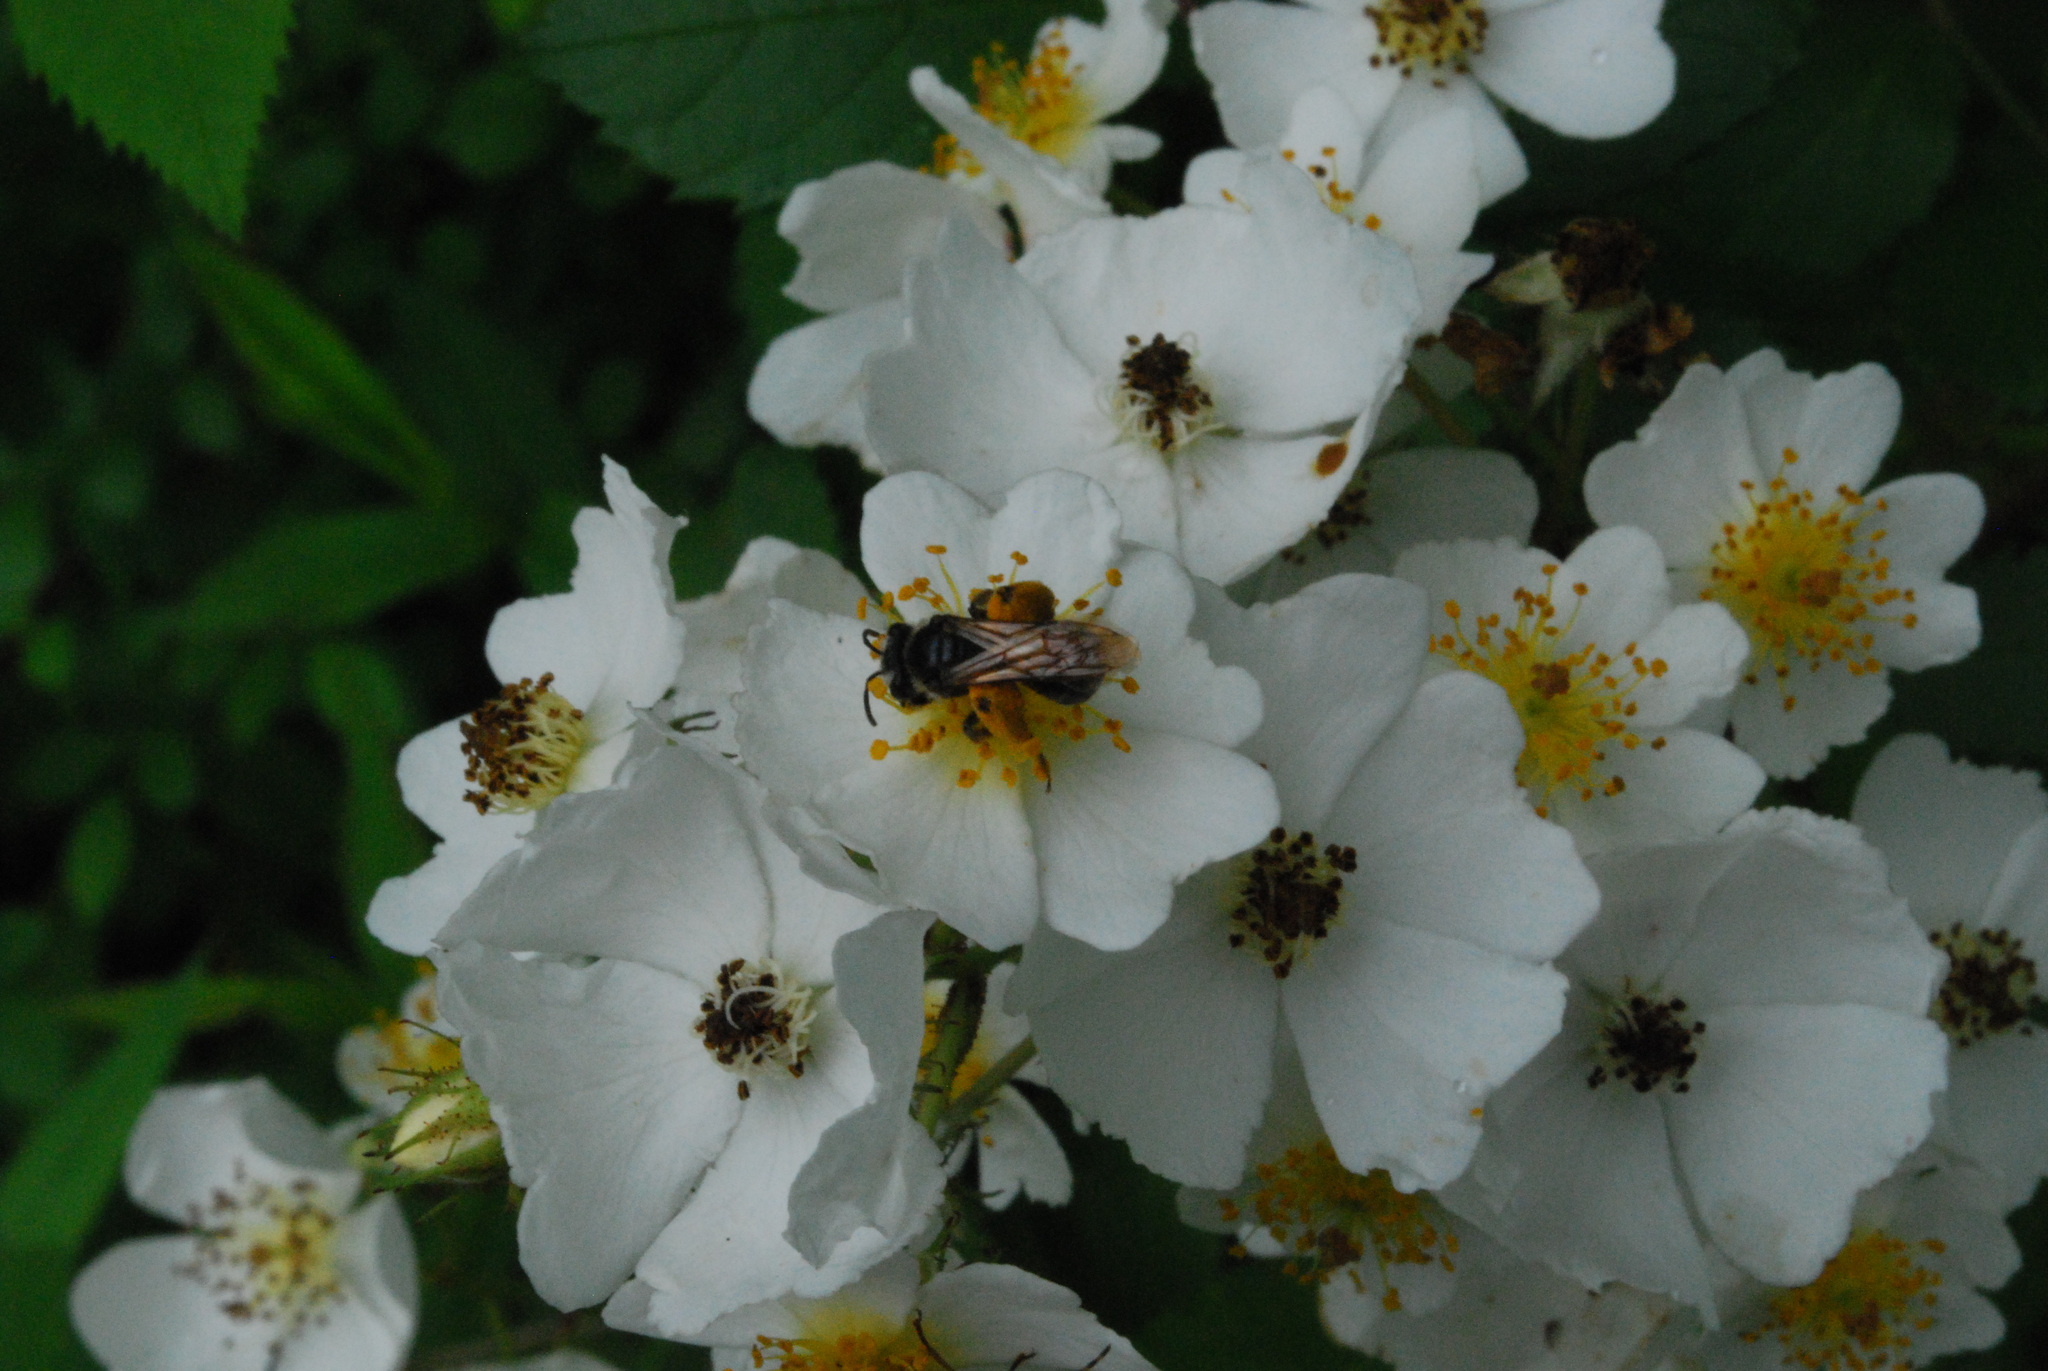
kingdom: Plantae
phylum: Tracheophyta
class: Magnoliopsida
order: Rosales
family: Rosaceae
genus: Rosa
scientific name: Rosa multiflora
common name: Multiflora rose
